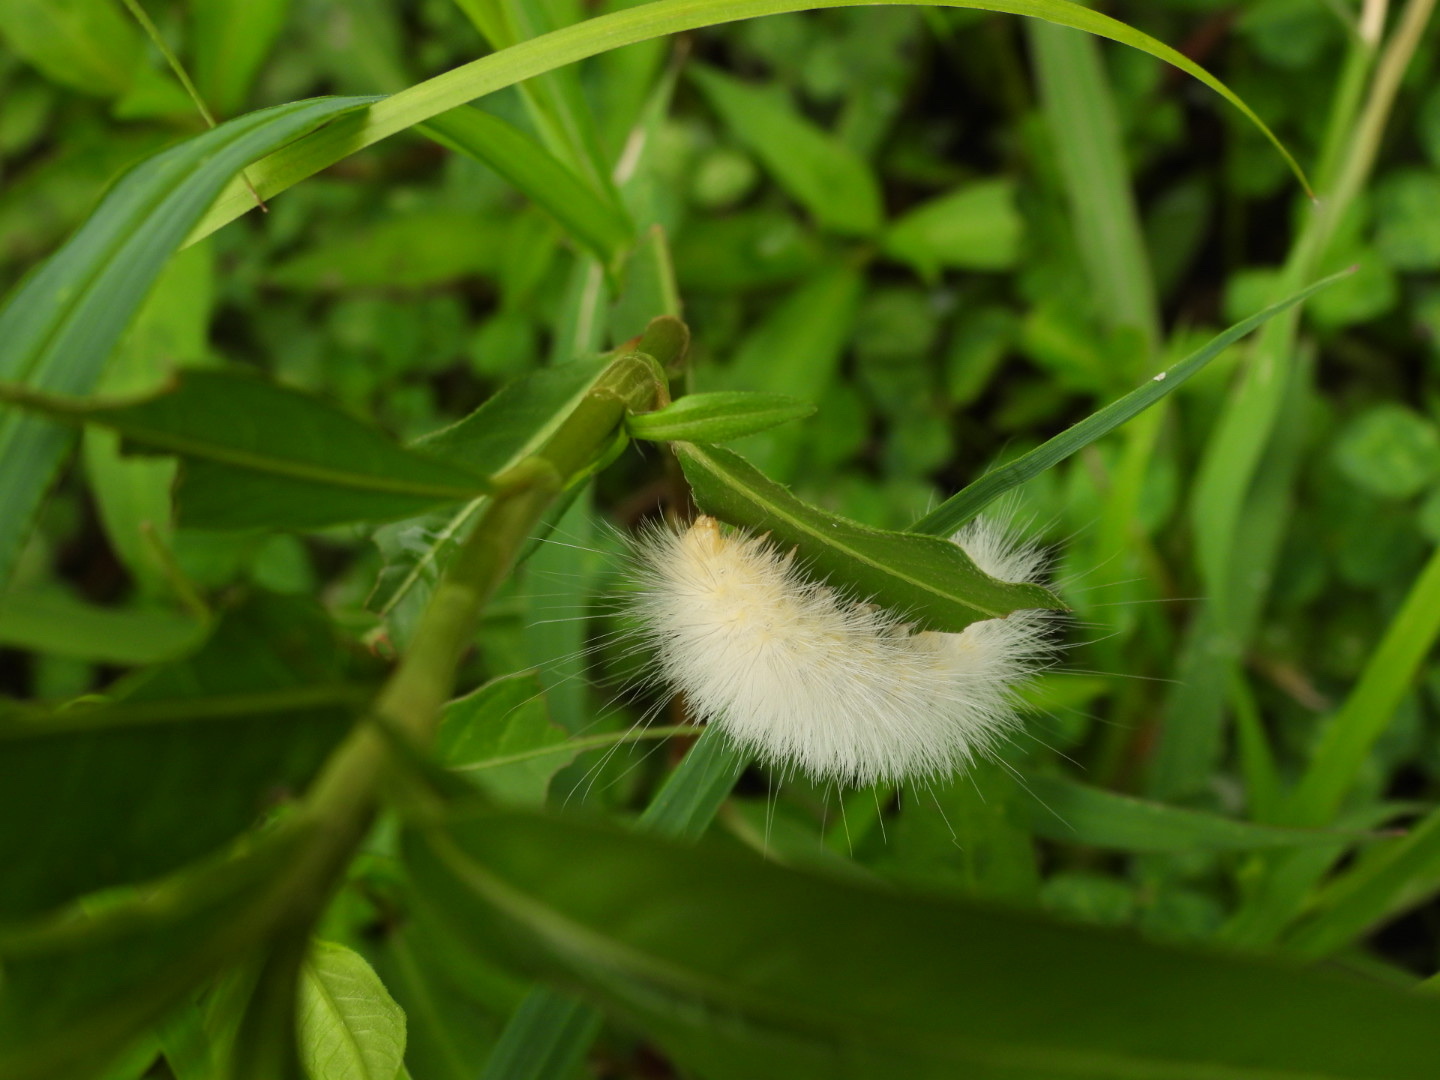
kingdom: Animalia
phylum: Arthropoda
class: Insecta
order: Lepidoptera
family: Erebidae
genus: Spilosoma
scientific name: Spilosoma virginica
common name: Virginia tiger moth
